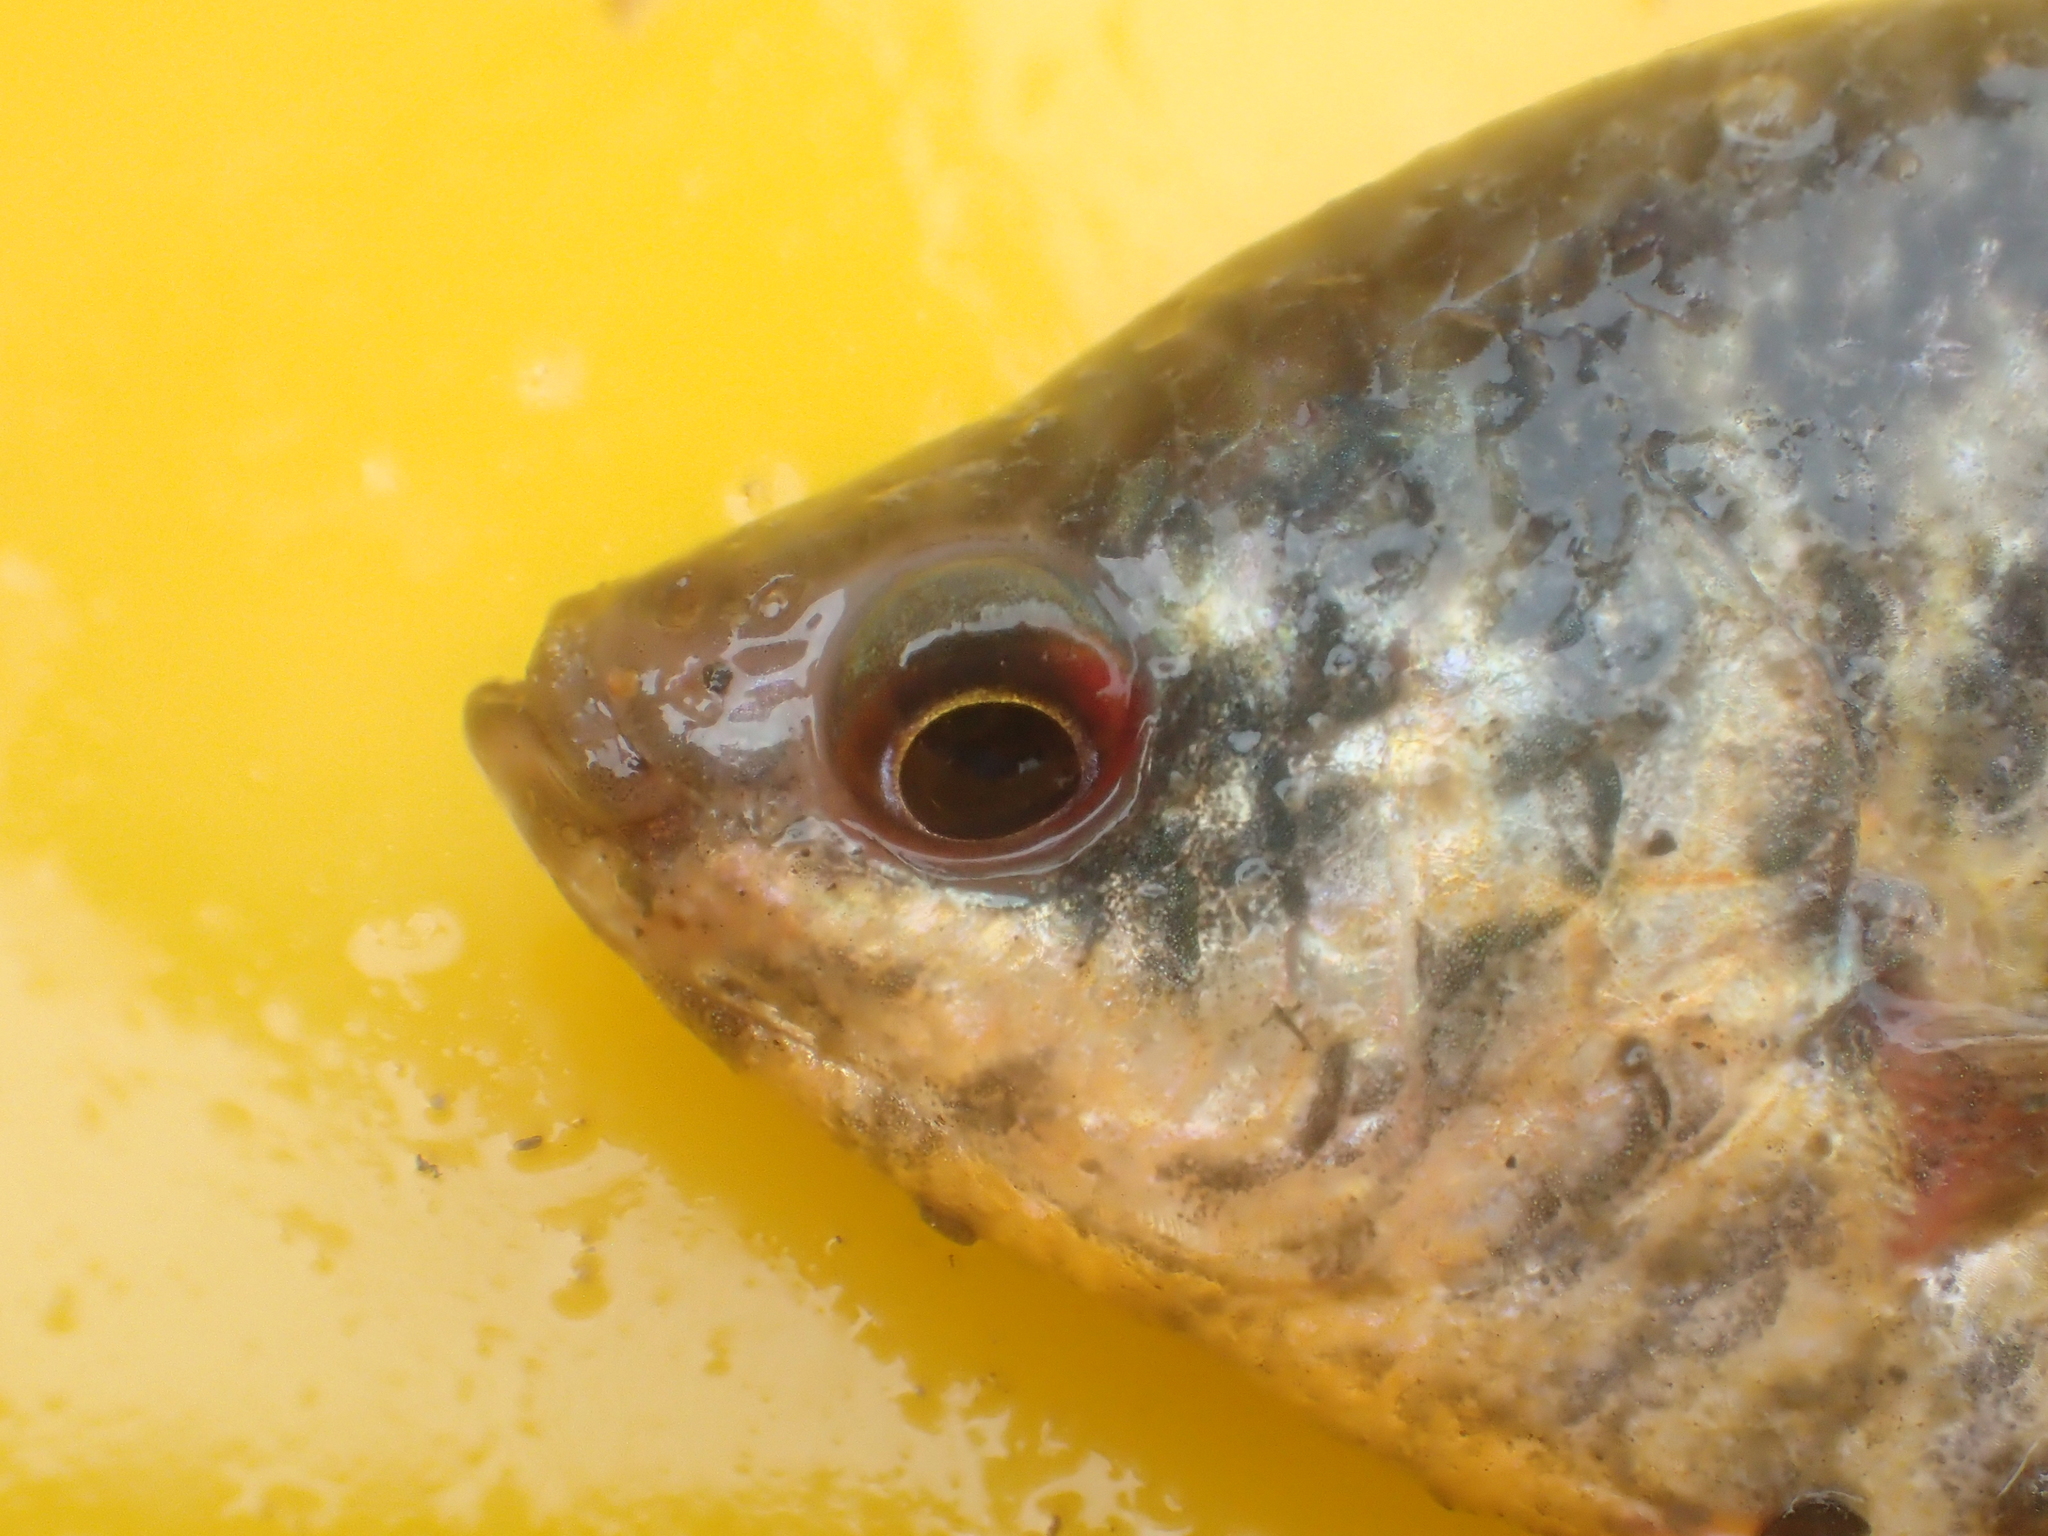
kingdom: Animalia
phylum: Chordata
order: Perciformes
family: Osphronemidae
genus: Trichopodus
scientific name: Trichopodus trichopterus
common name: Blue gourami
